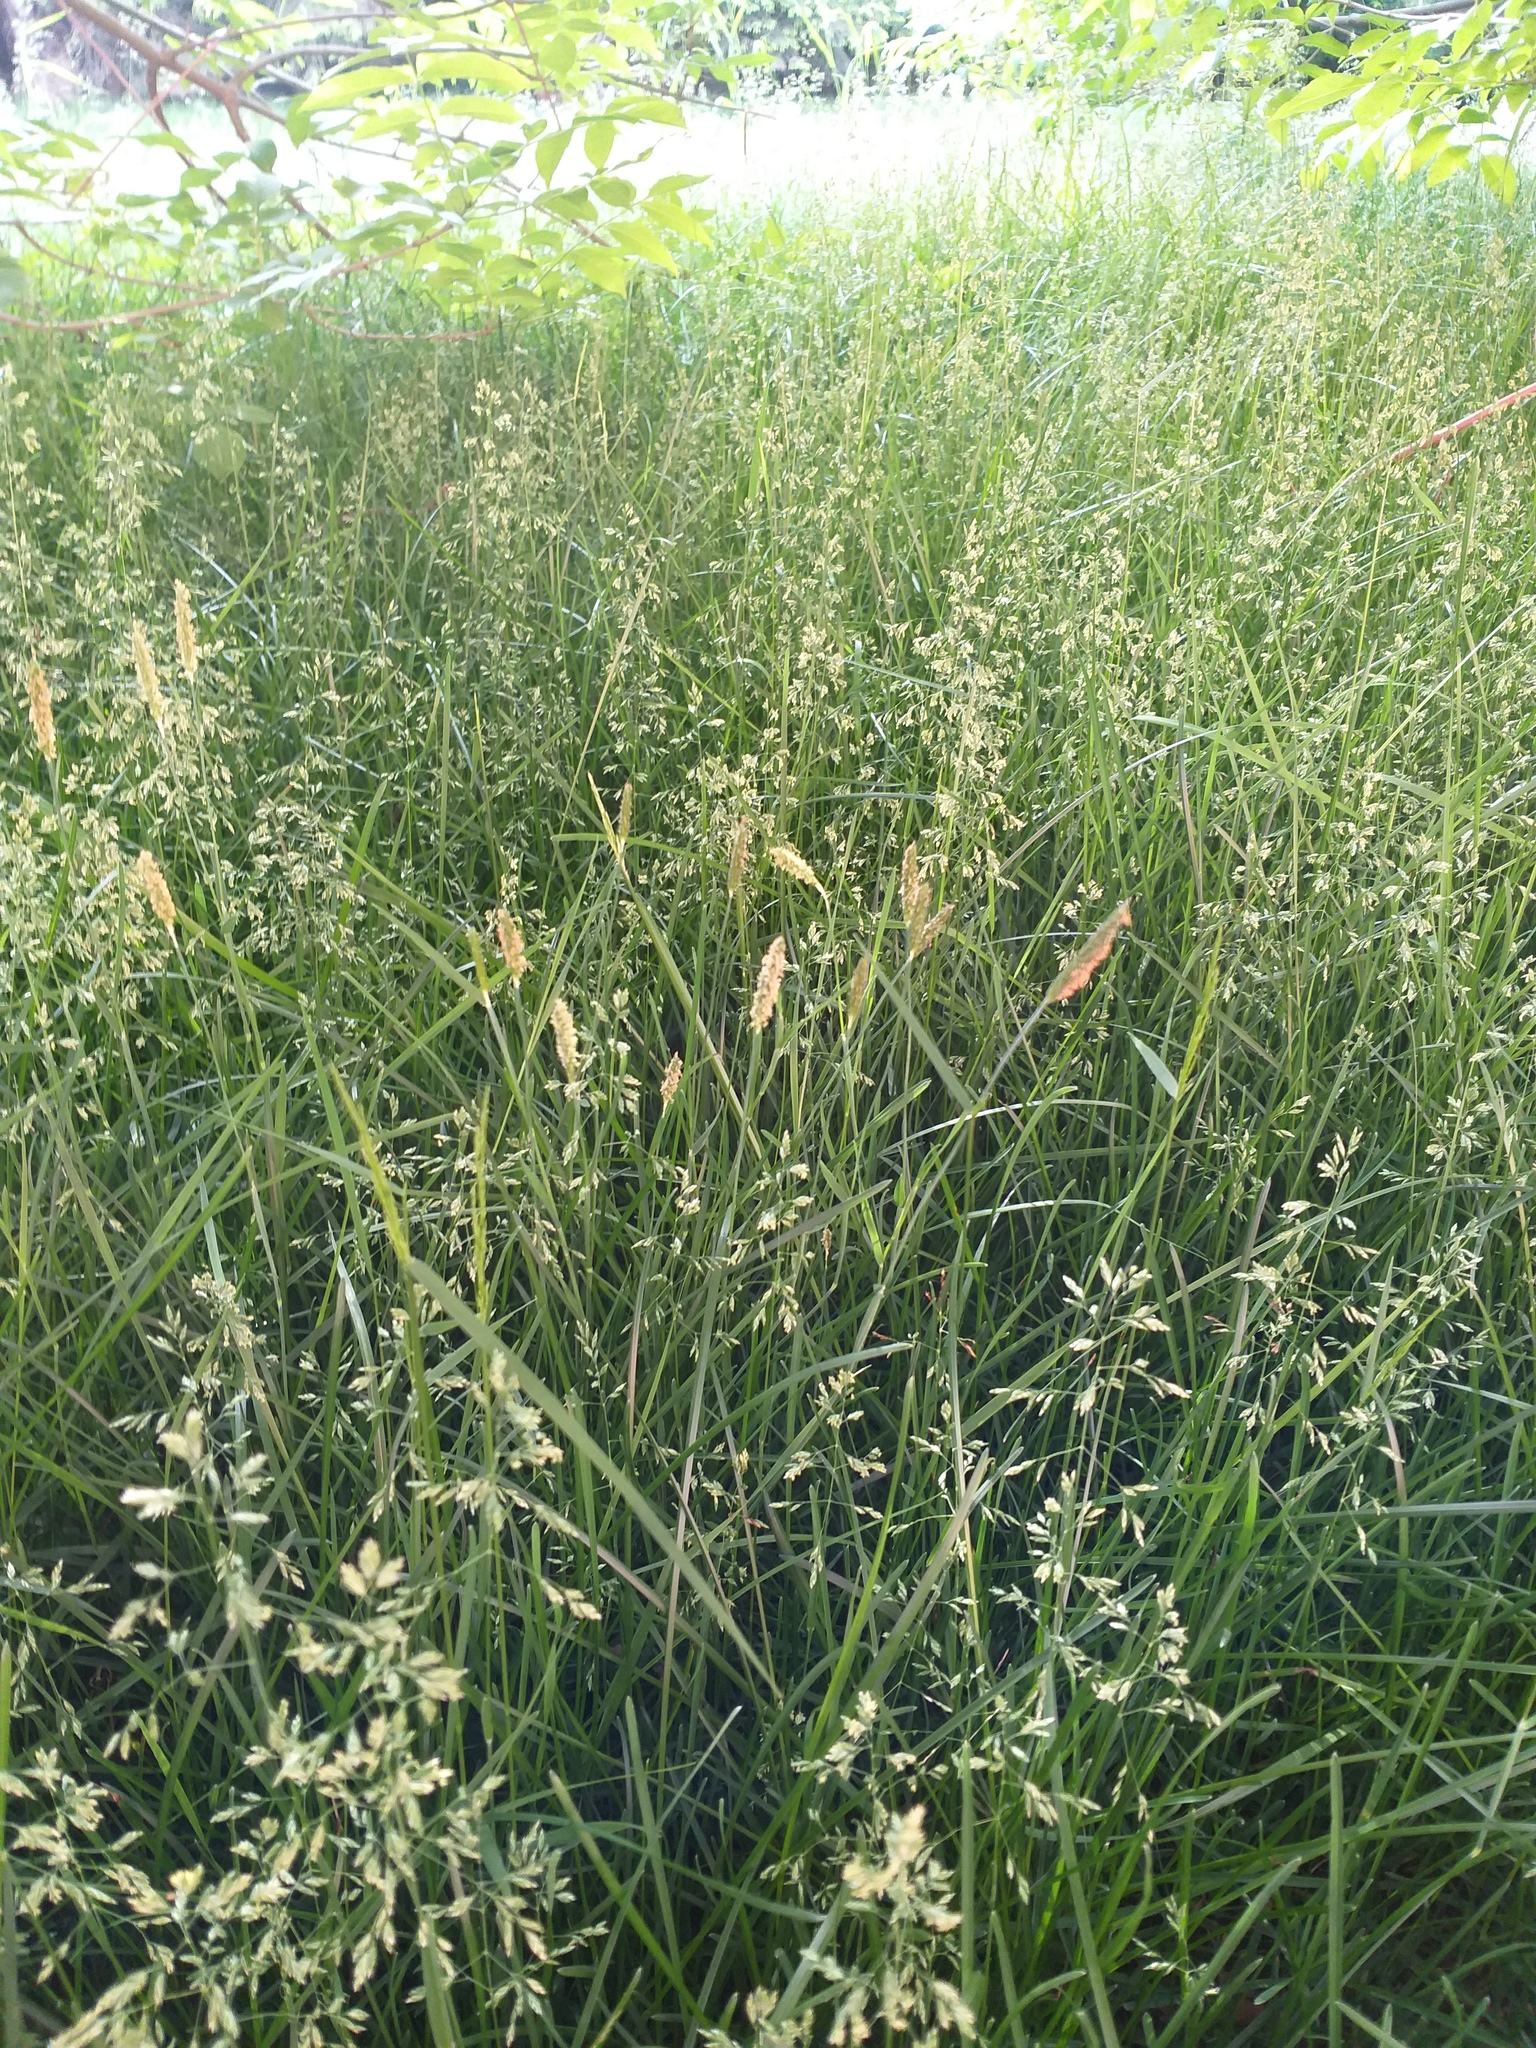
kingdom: Plantae
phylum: Tracheophyta
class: Liliopsida
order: Poales
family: Poaceae
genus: Alopecurus
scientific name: Alopecurus geniculatus
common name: Water foxtail
